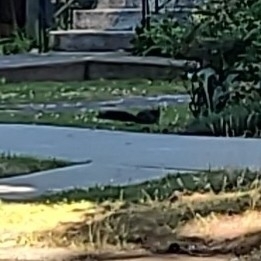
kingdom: Animalia
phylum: Chordata
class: Mammalia
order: Rodentia
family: Sciuridae
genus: Sciurus
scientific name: Sciurus carolinensis
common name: Eastern gray squirrel
